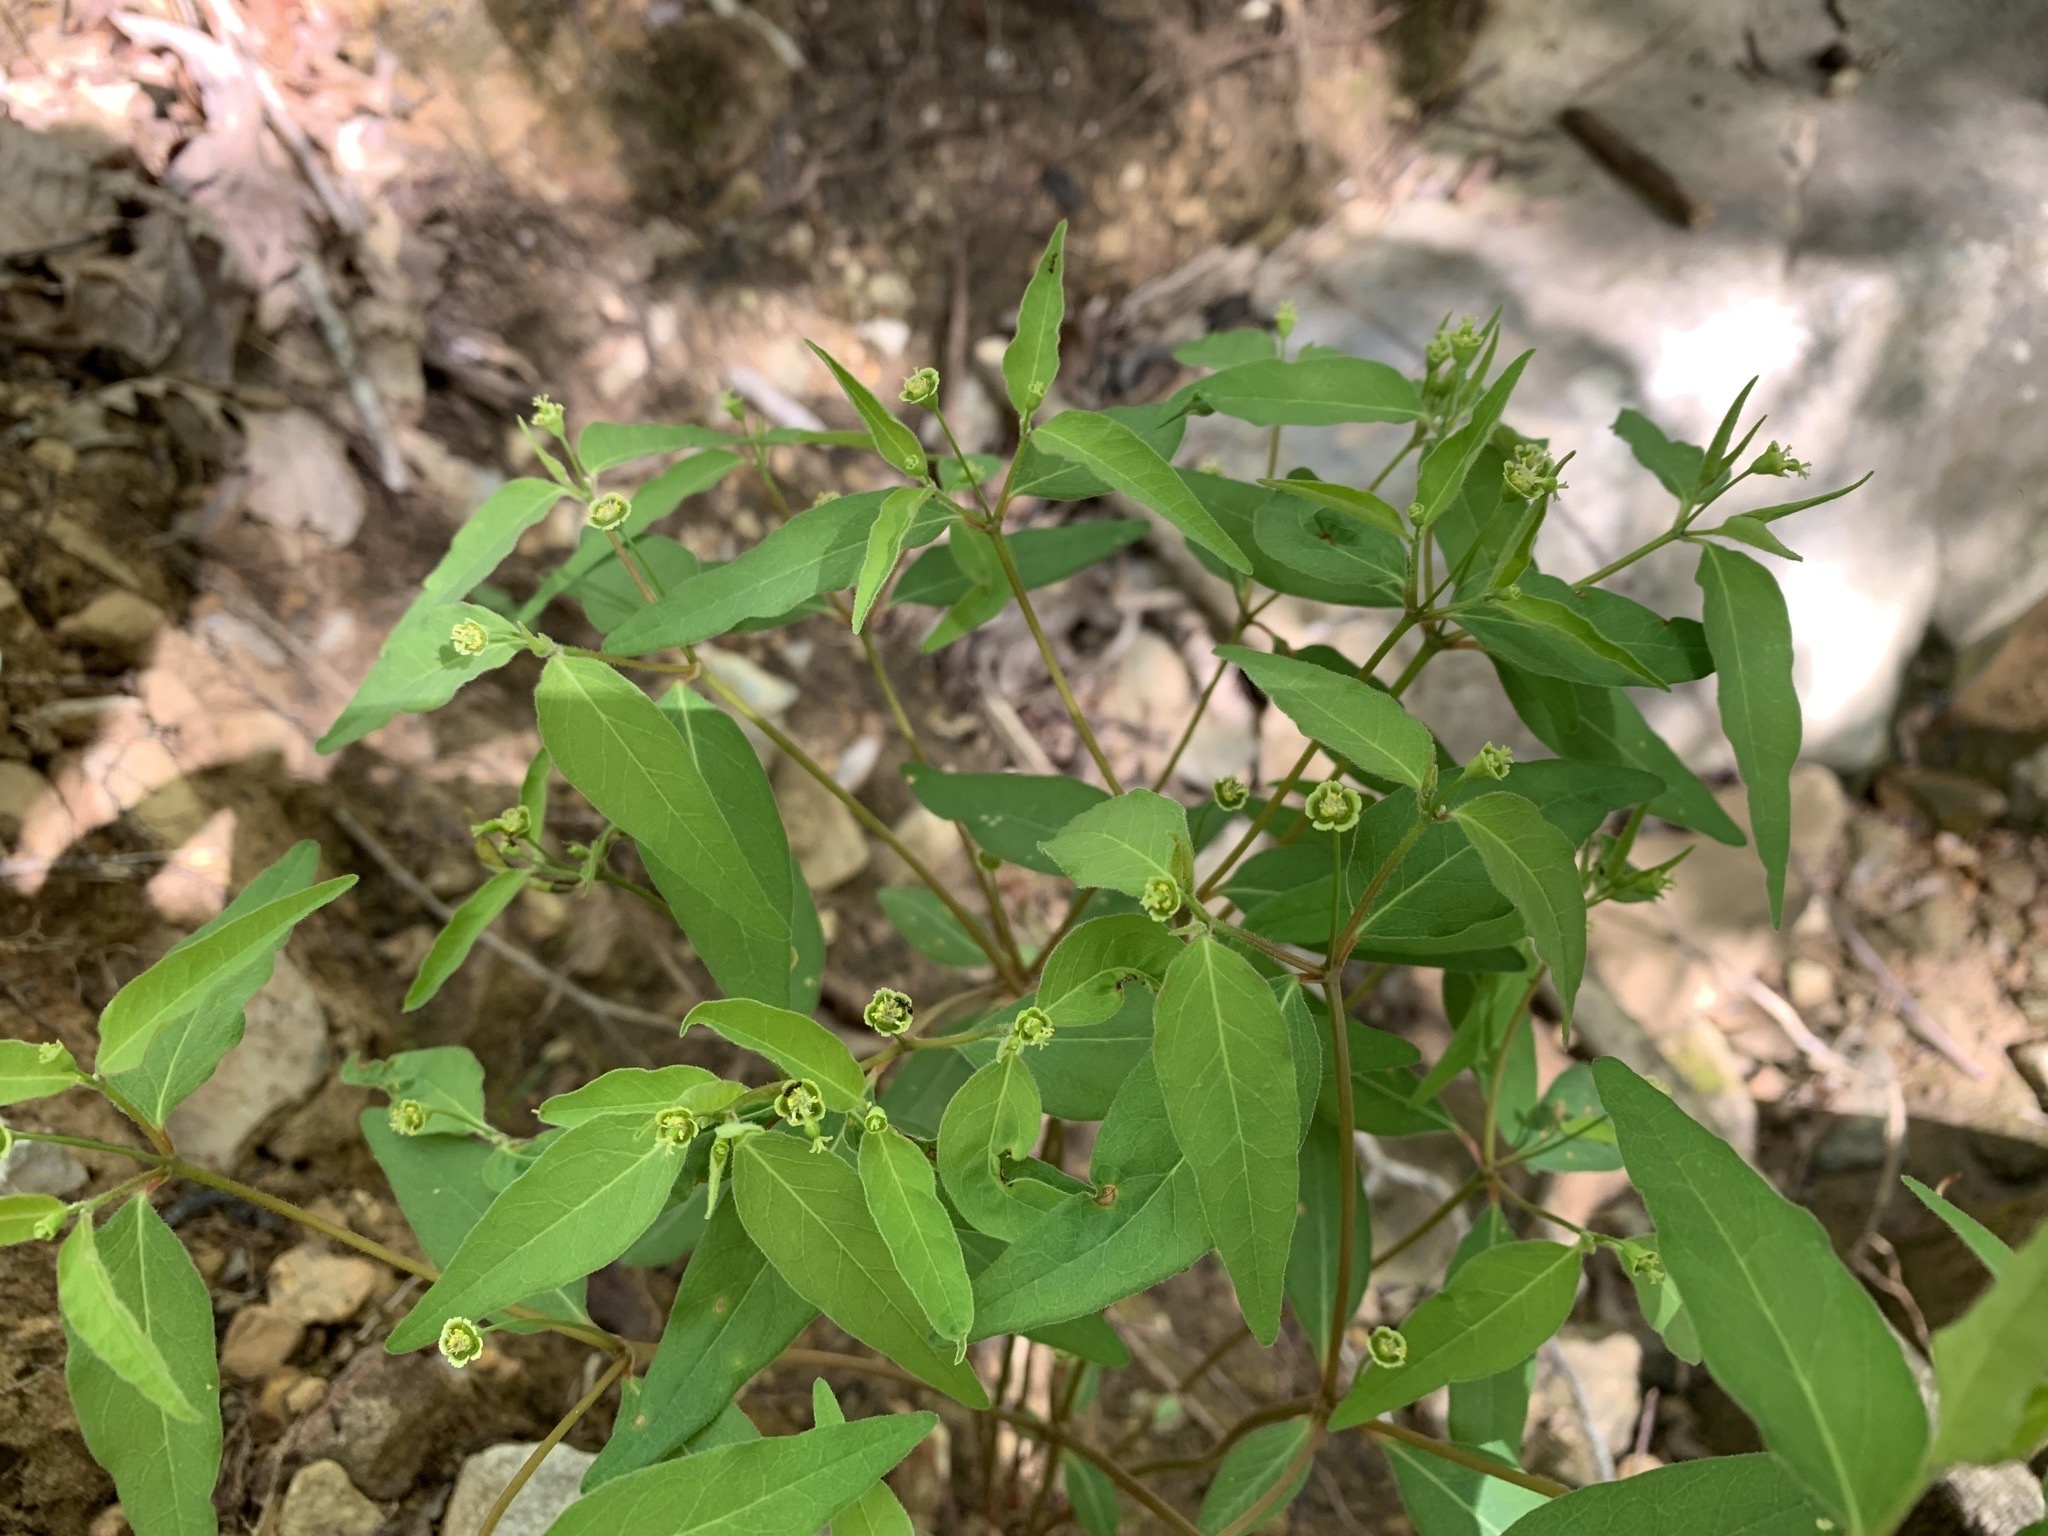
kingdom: Plantae
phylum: Tracheophyta
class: Magnoliopsida
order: Malpighiales
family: Euphorbiaceae
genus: Euphorbia
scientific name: Euphorbia mercurialina
